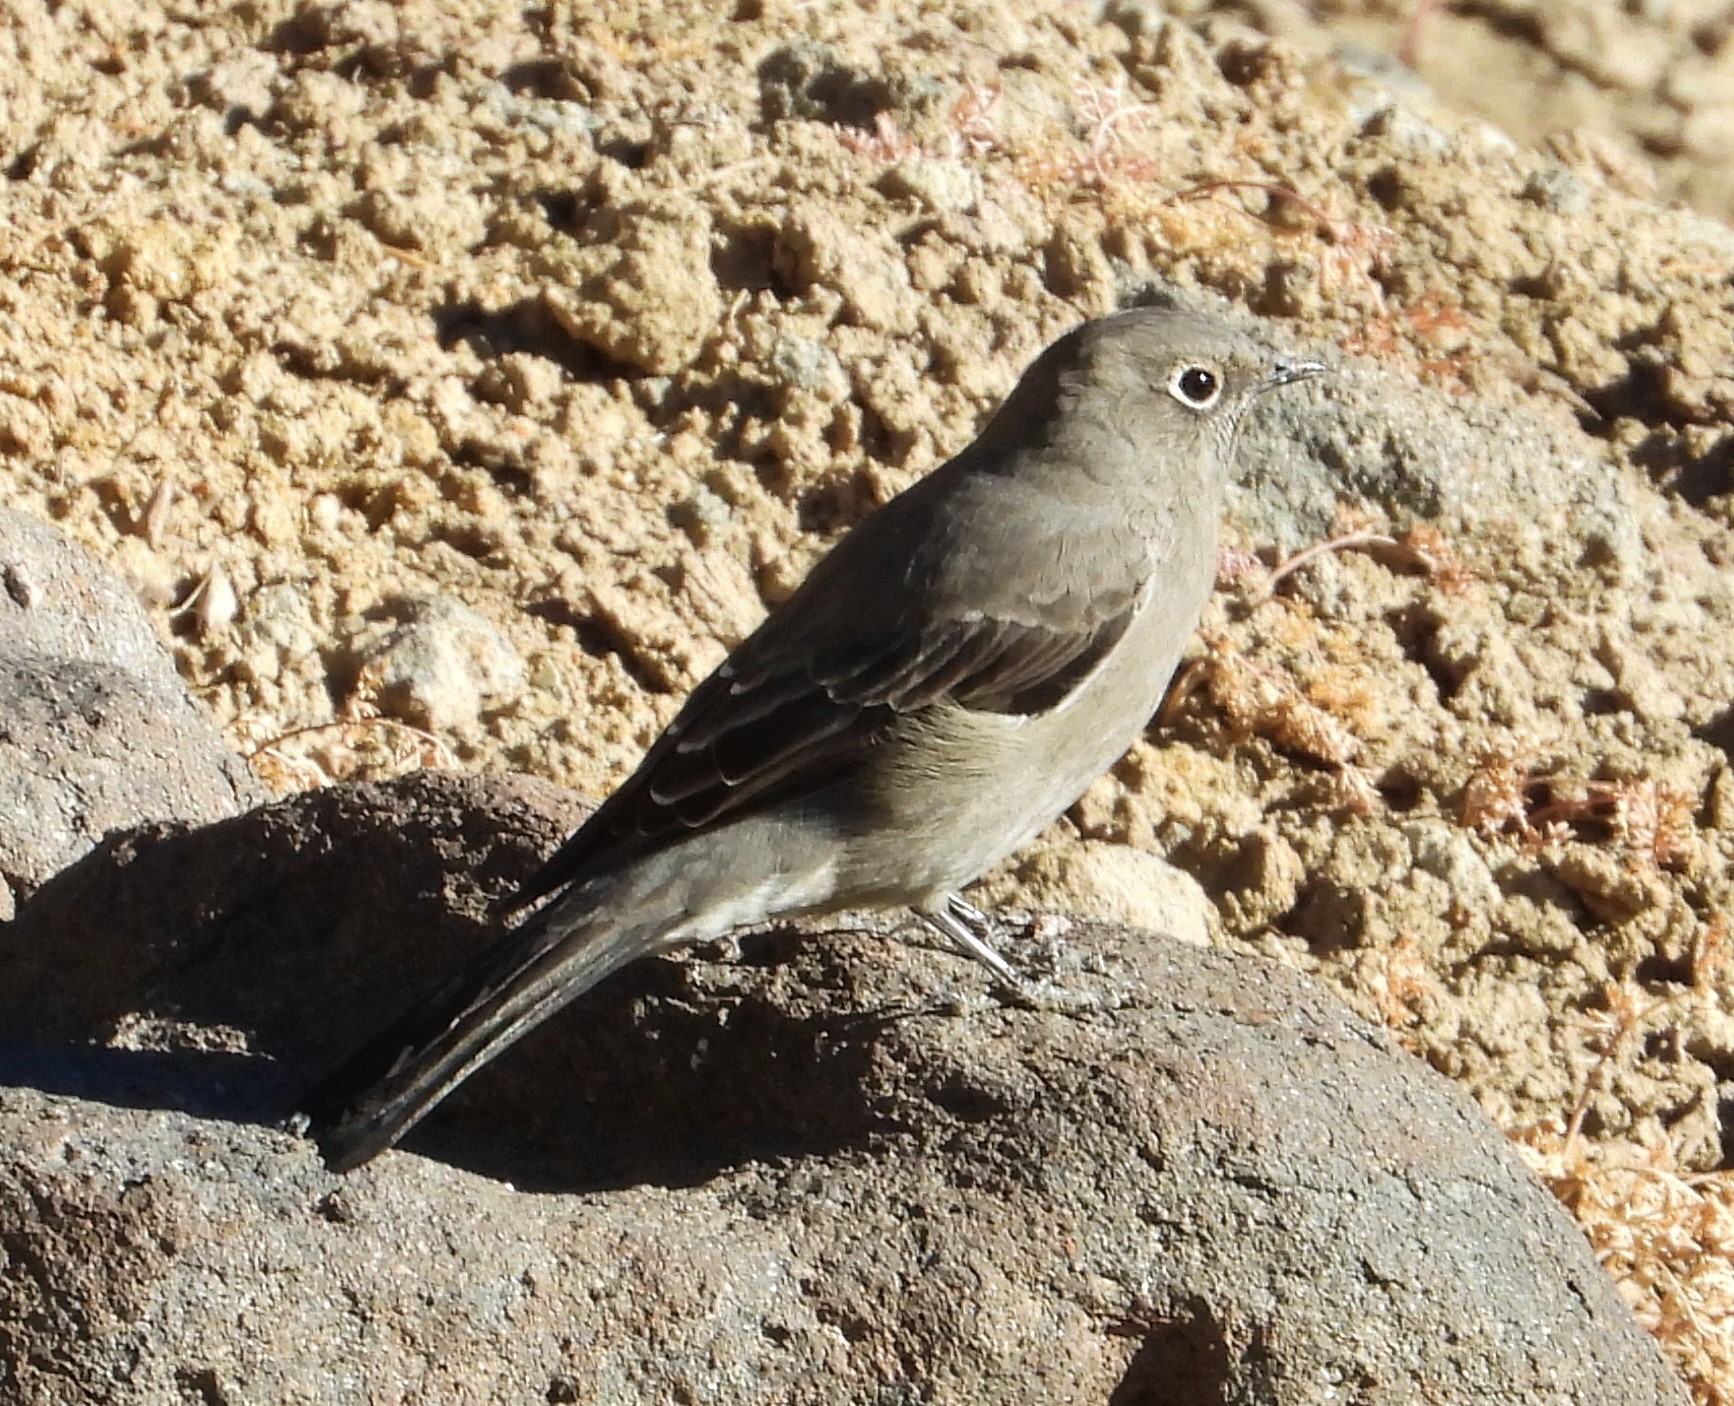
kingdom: Animalia
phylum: Chordata
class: Aves
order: Passeriformes
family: Turdidae
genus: Myadestes
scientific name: Myadestes townsendi
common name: Townsend's solitaire
